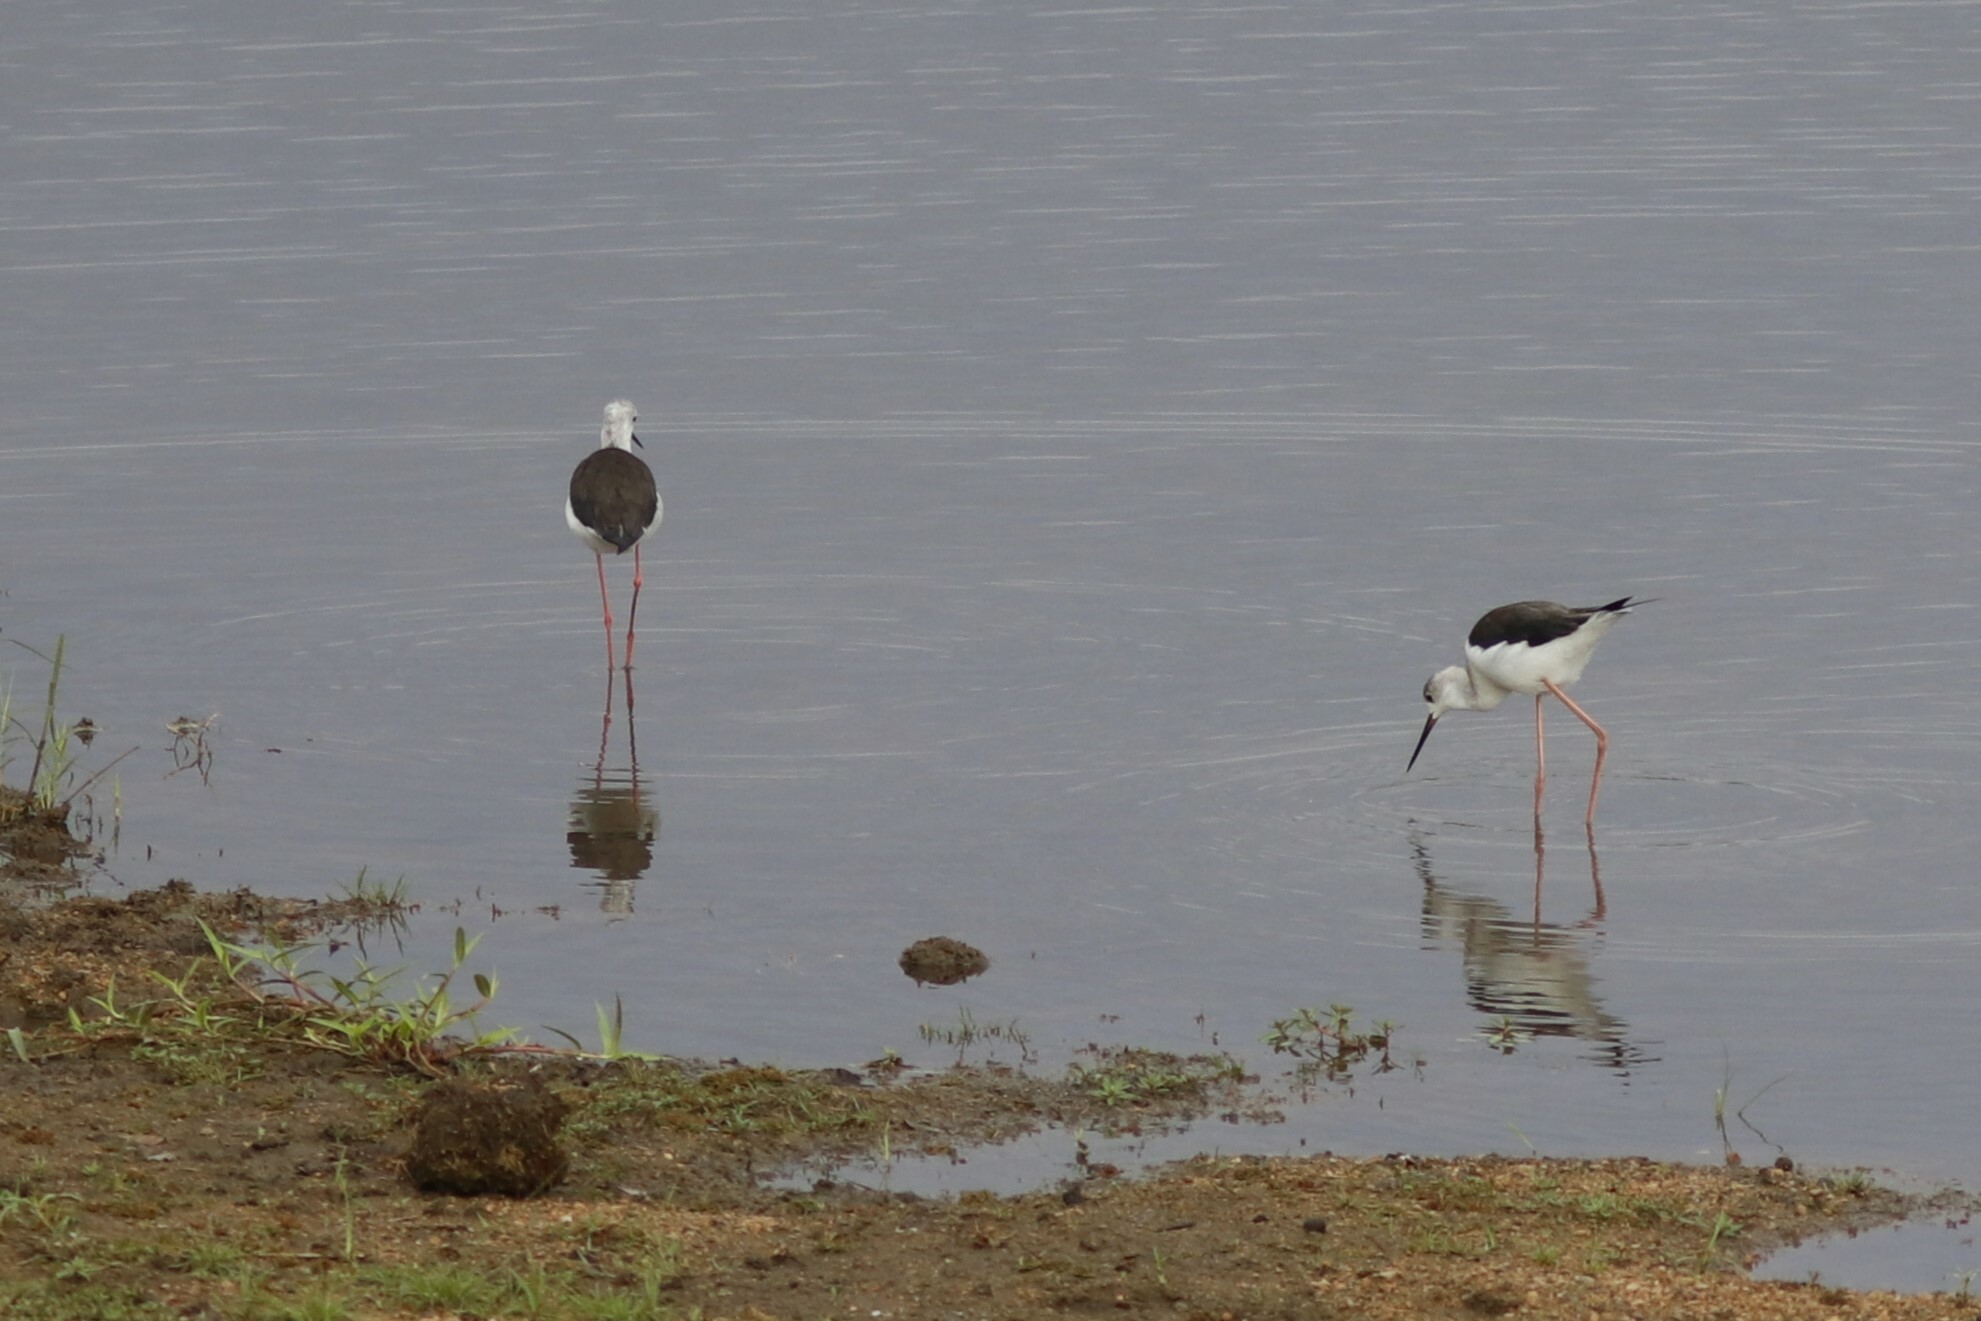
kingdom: Animalia
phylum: Chordata
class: Aves
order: Charadriiformes
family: Recurvirostridae
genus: Himantopus
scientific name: Himantopus himantopus
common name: Black-winged stilt
